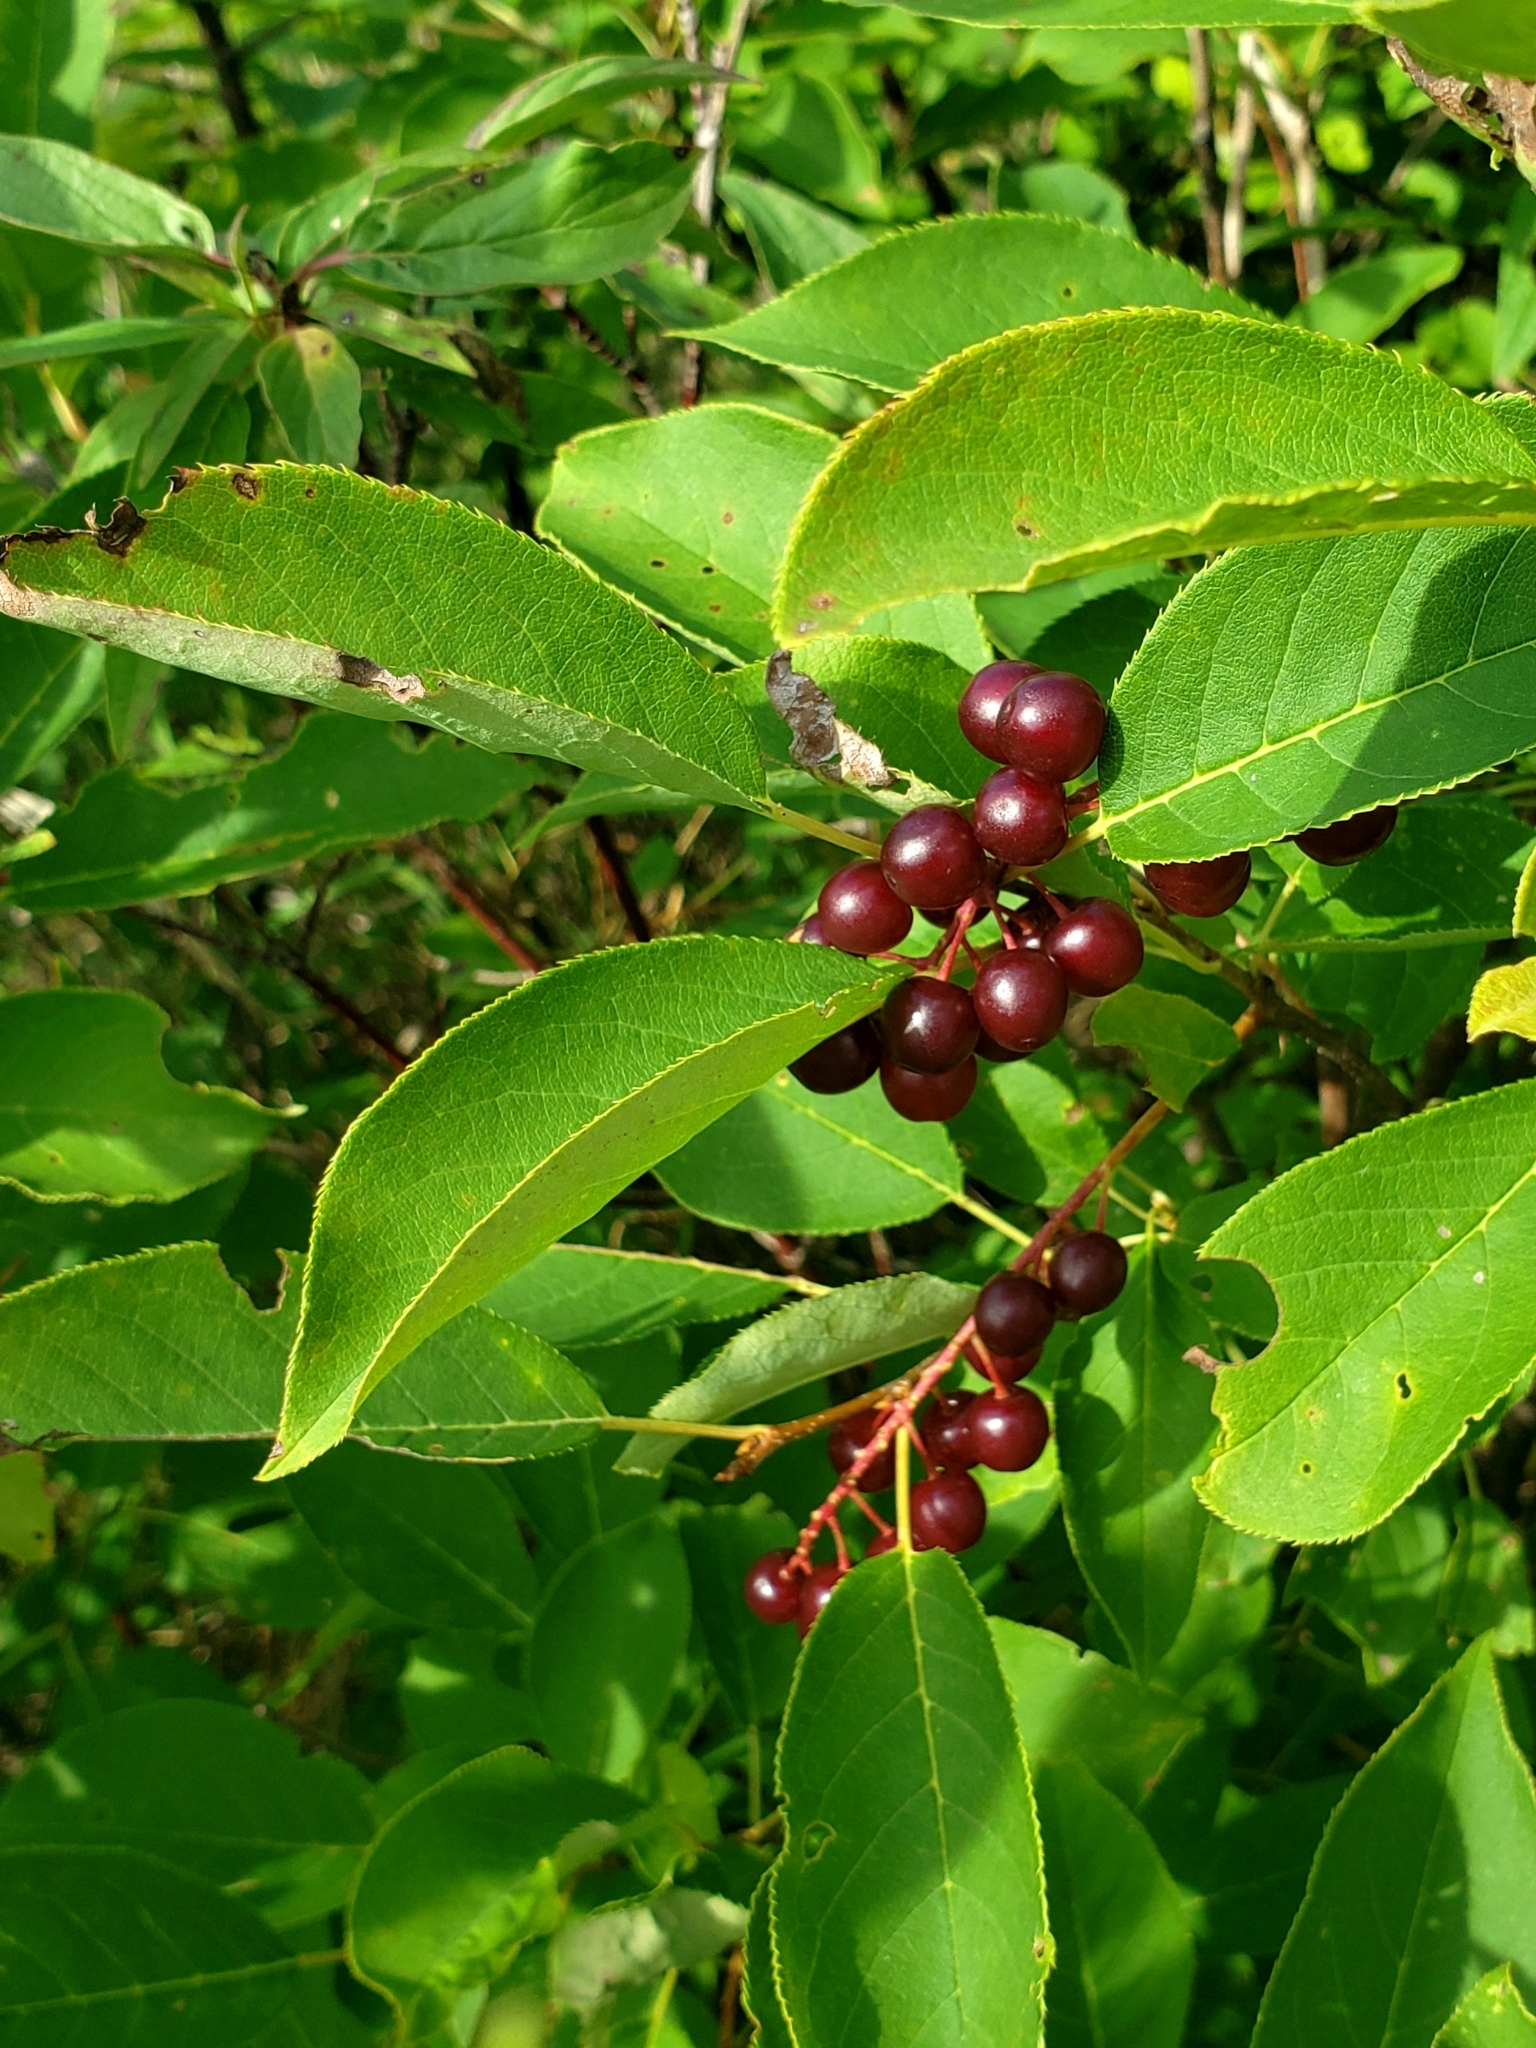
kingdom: Plantae
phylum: Tracheophyta
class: Magnoliopsida
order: Rosales
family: Rosaceae
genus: Prunus
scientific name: Prunus virginiana
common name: Chokecherry
